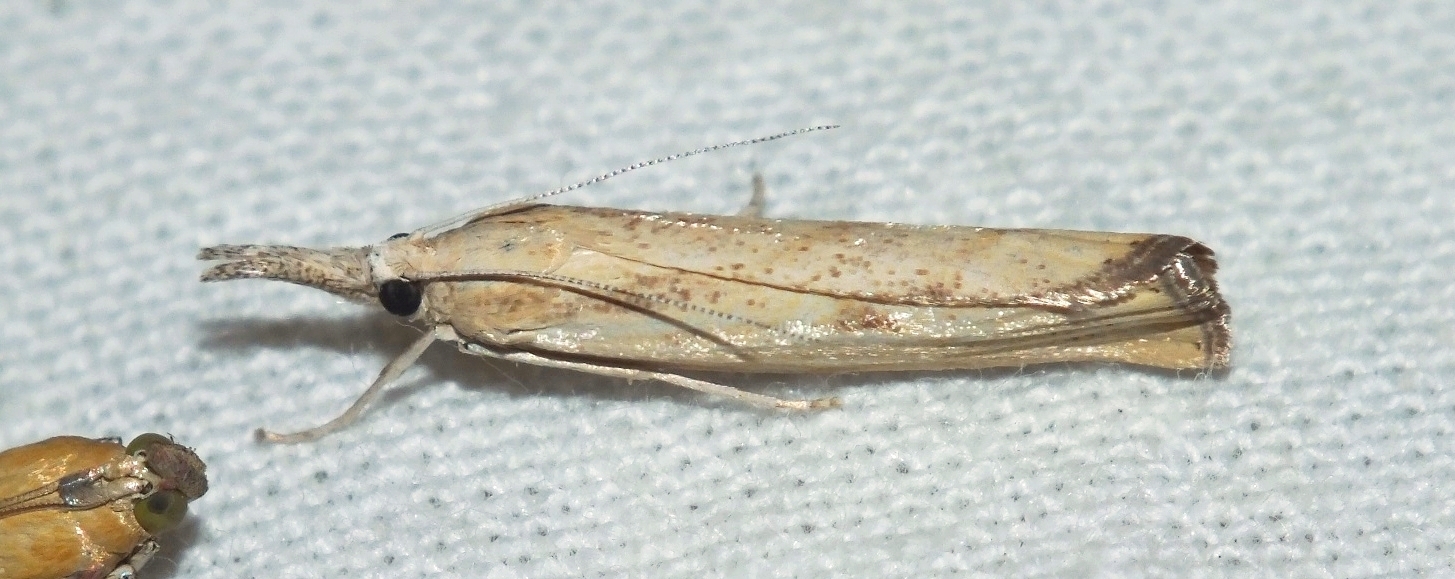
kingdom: Animalia
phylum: Arthropoda
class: Insecta
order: Lepidoptera
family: Crambidae
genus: Agriphila
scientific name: Agriphila inquinatella
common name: Barred grass-veneer
